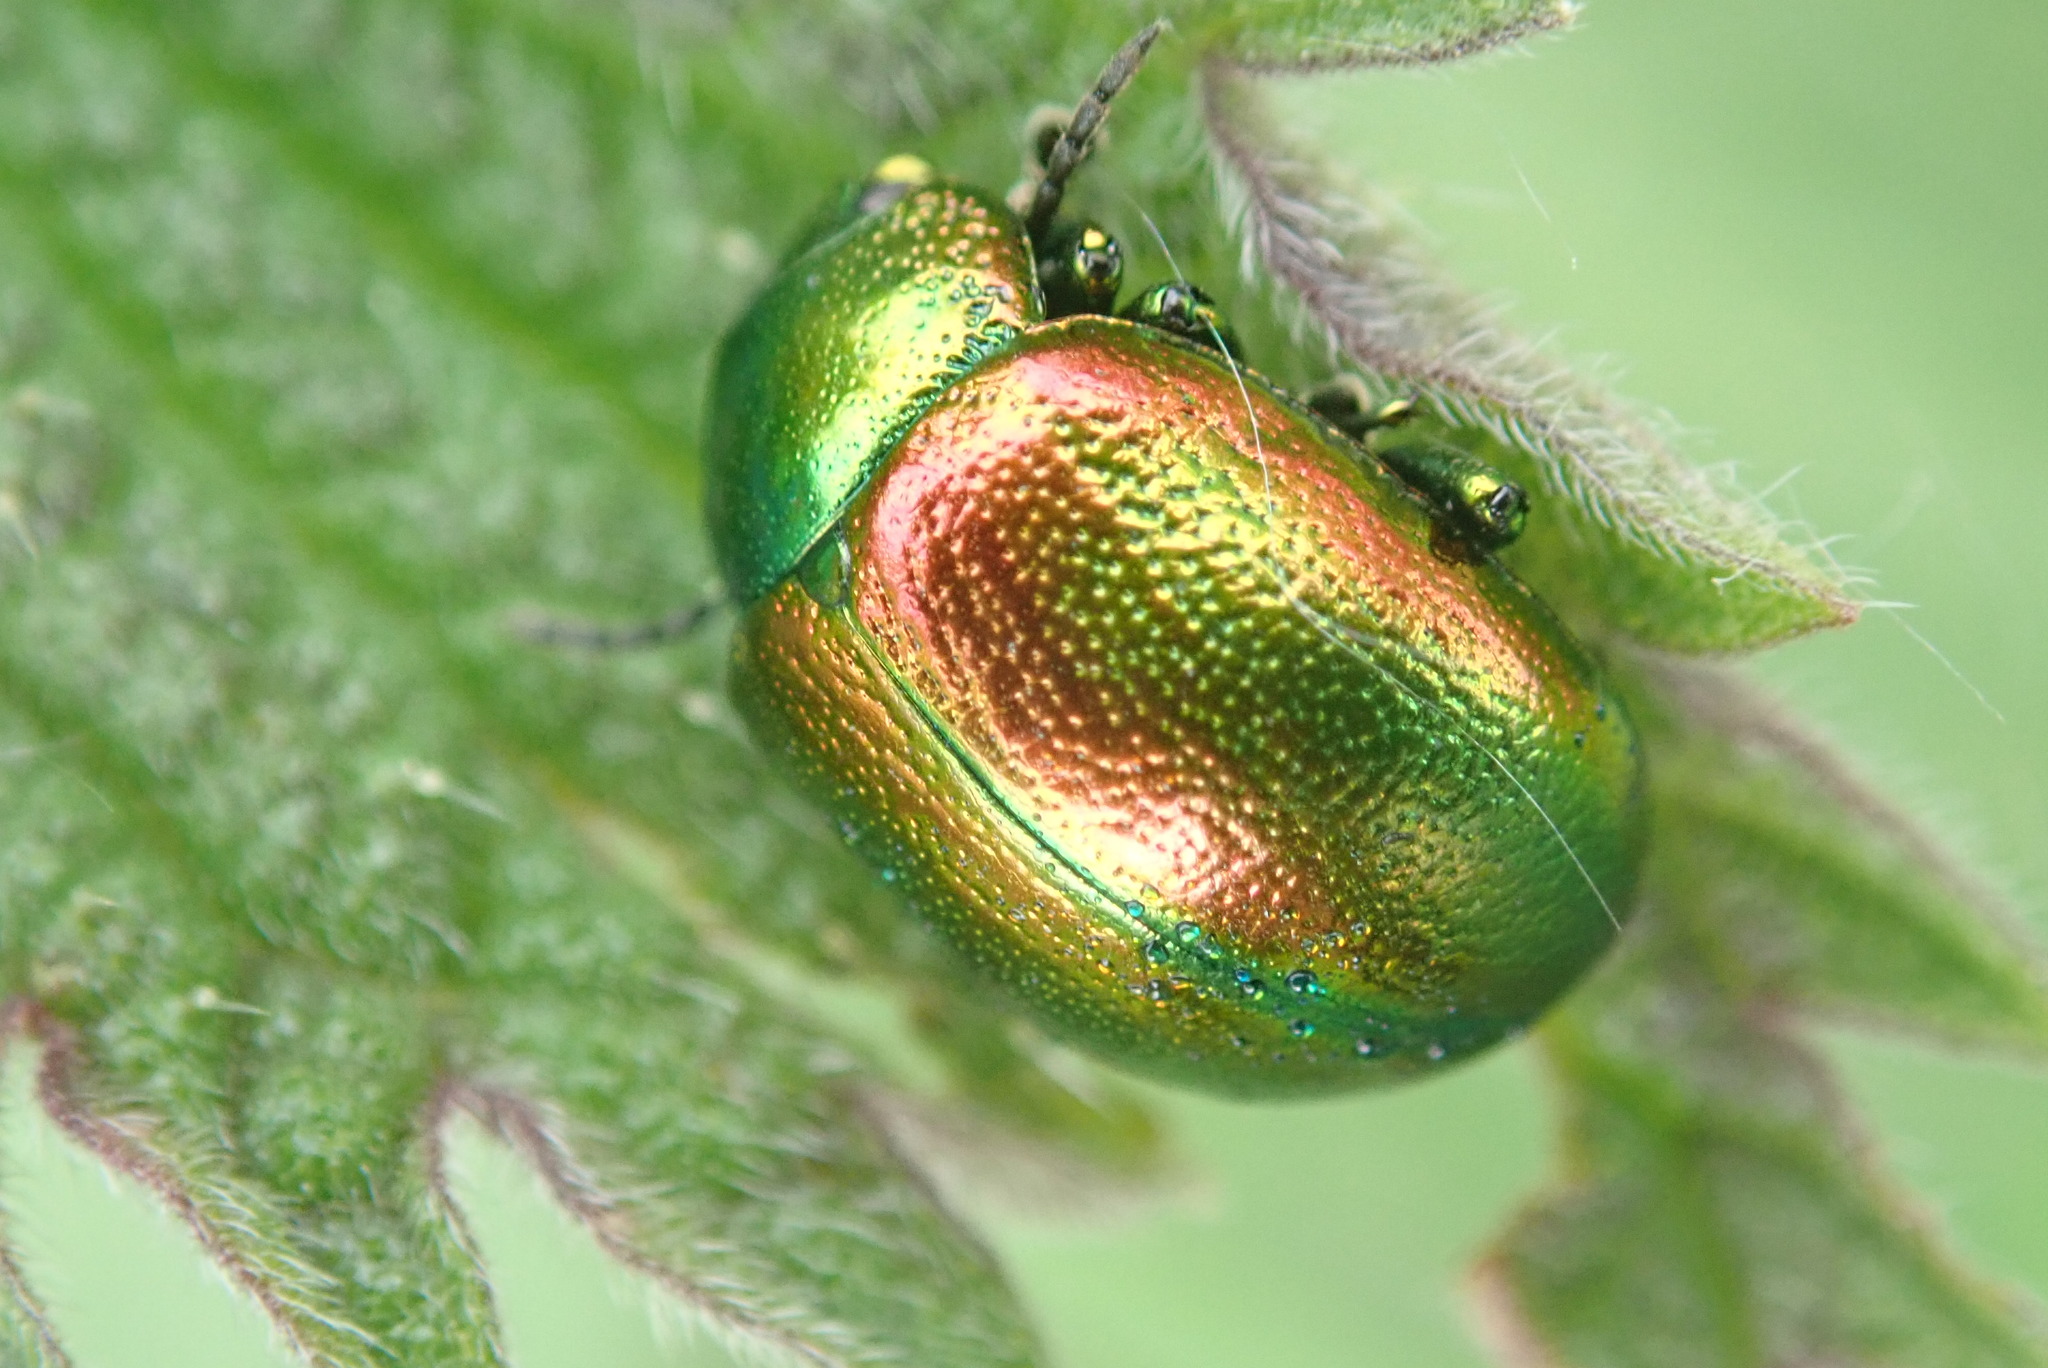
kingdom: Animalia
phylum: Arthropoda
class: Insecta
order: Coleoptera
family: Chrysomelidae
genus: Chrysolina
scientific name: Chrysolina graminis
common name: Tansey beetle
